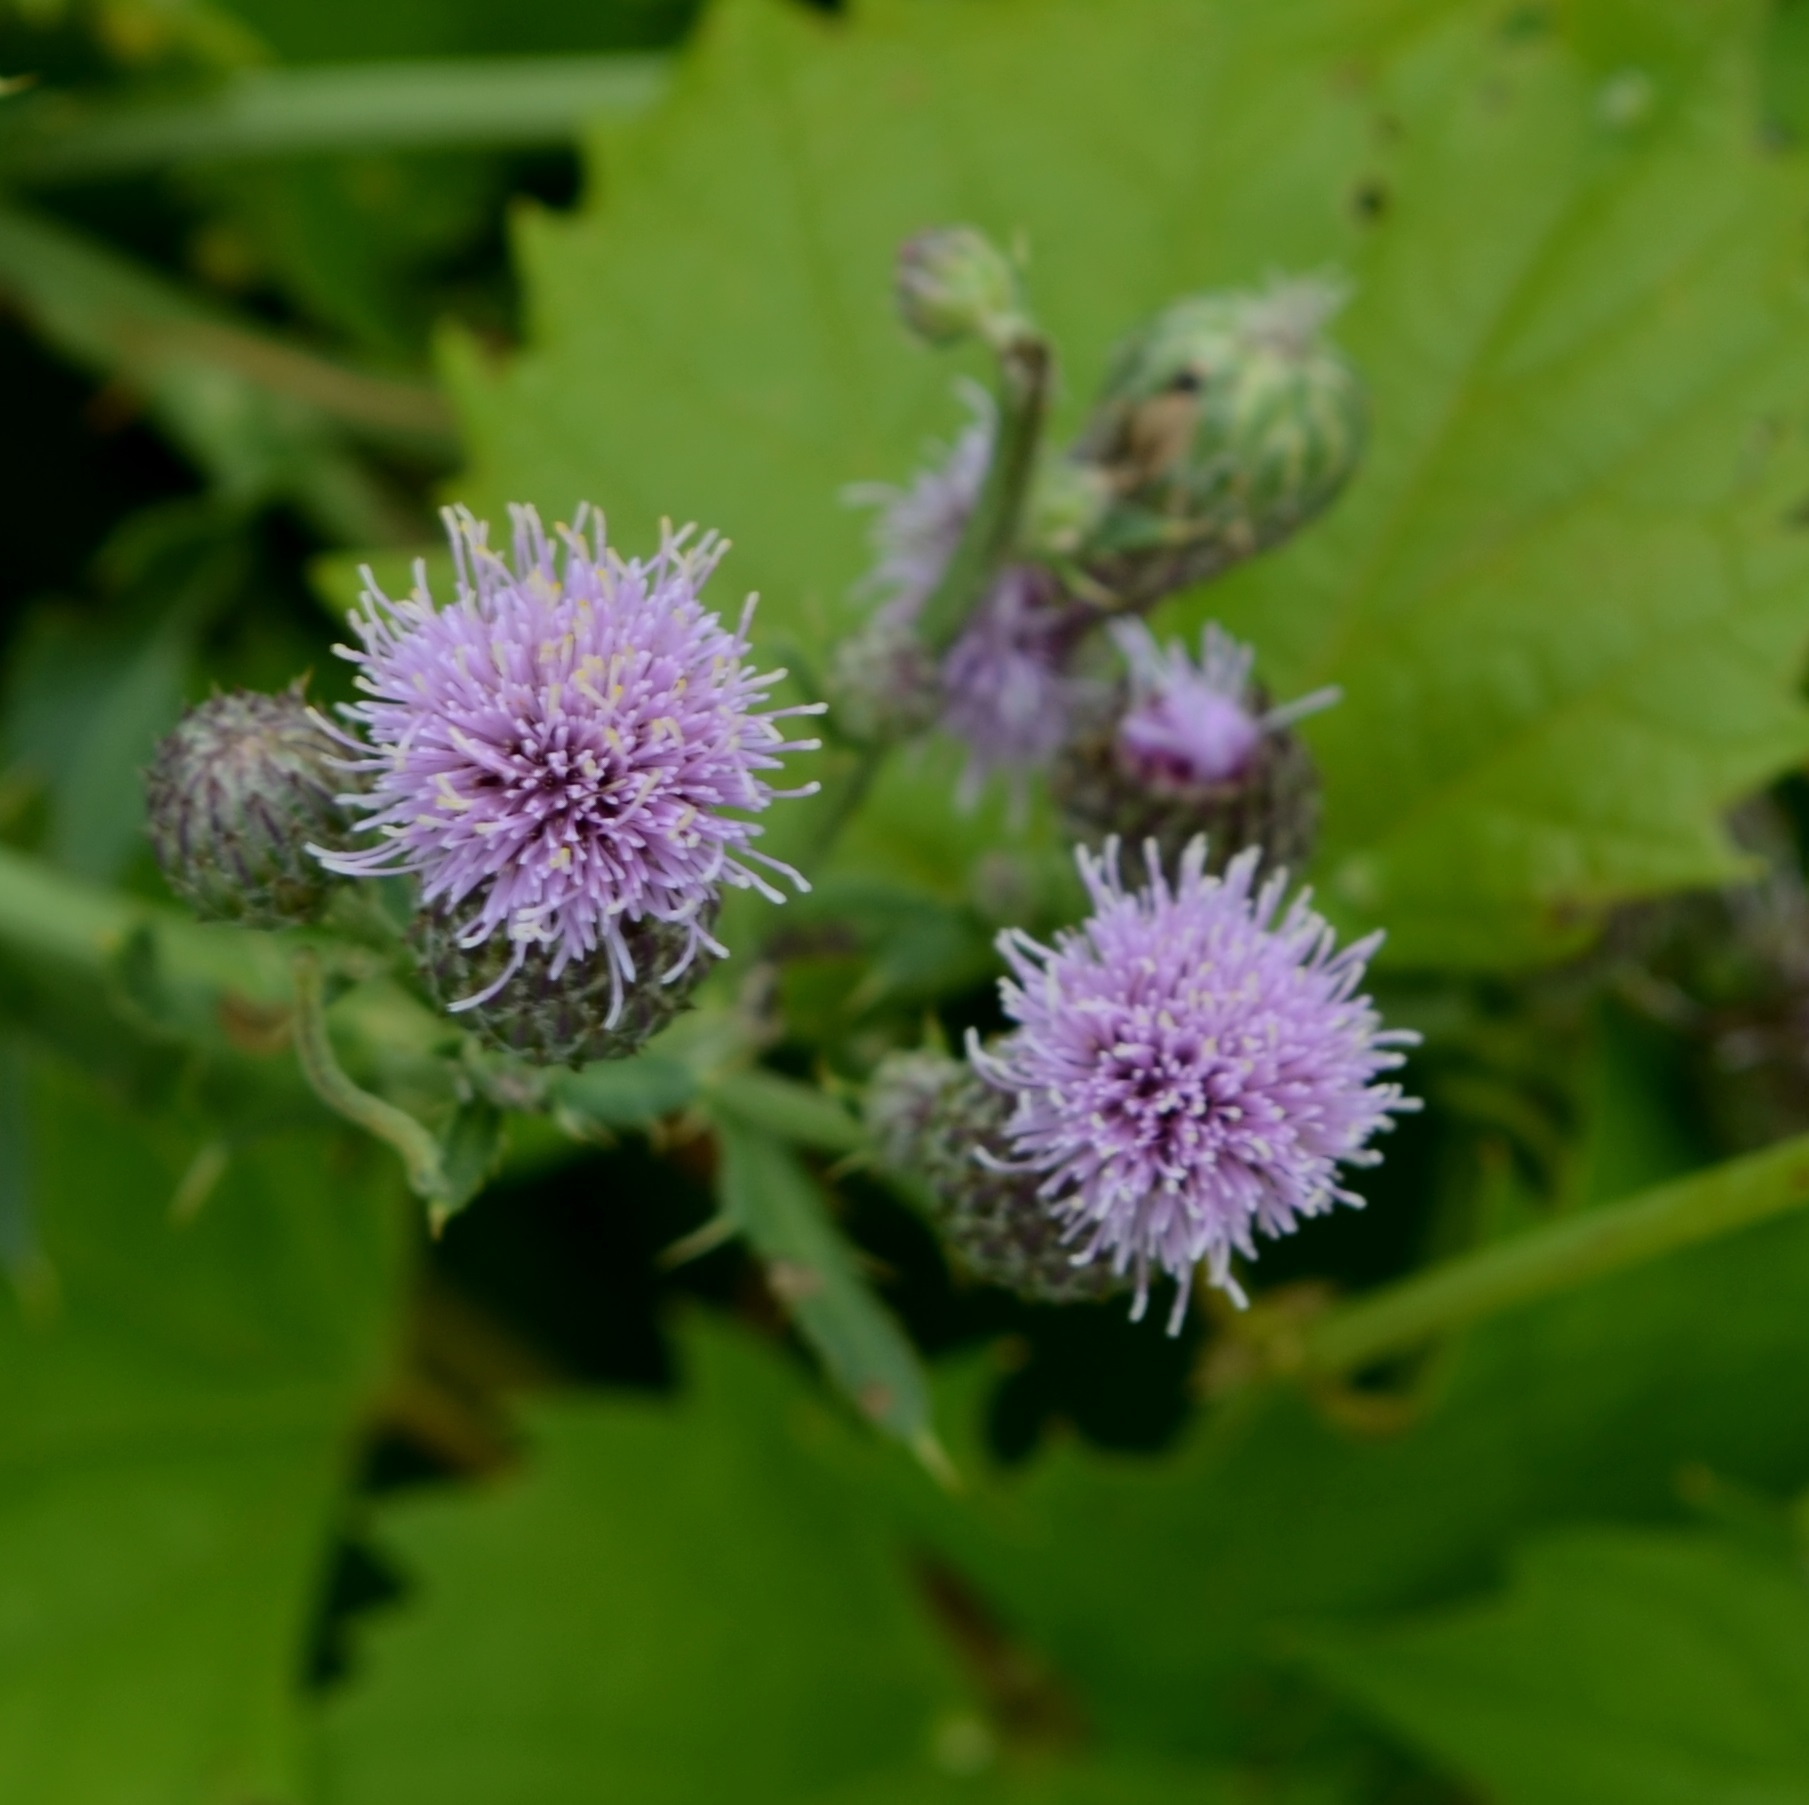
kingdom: Plantae
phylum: Tracheophyta
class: Magnoliopsida
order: Asterales
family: Asteraceae
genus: Cirsium
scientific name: Cirsium arvense
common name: Creeping thistle
